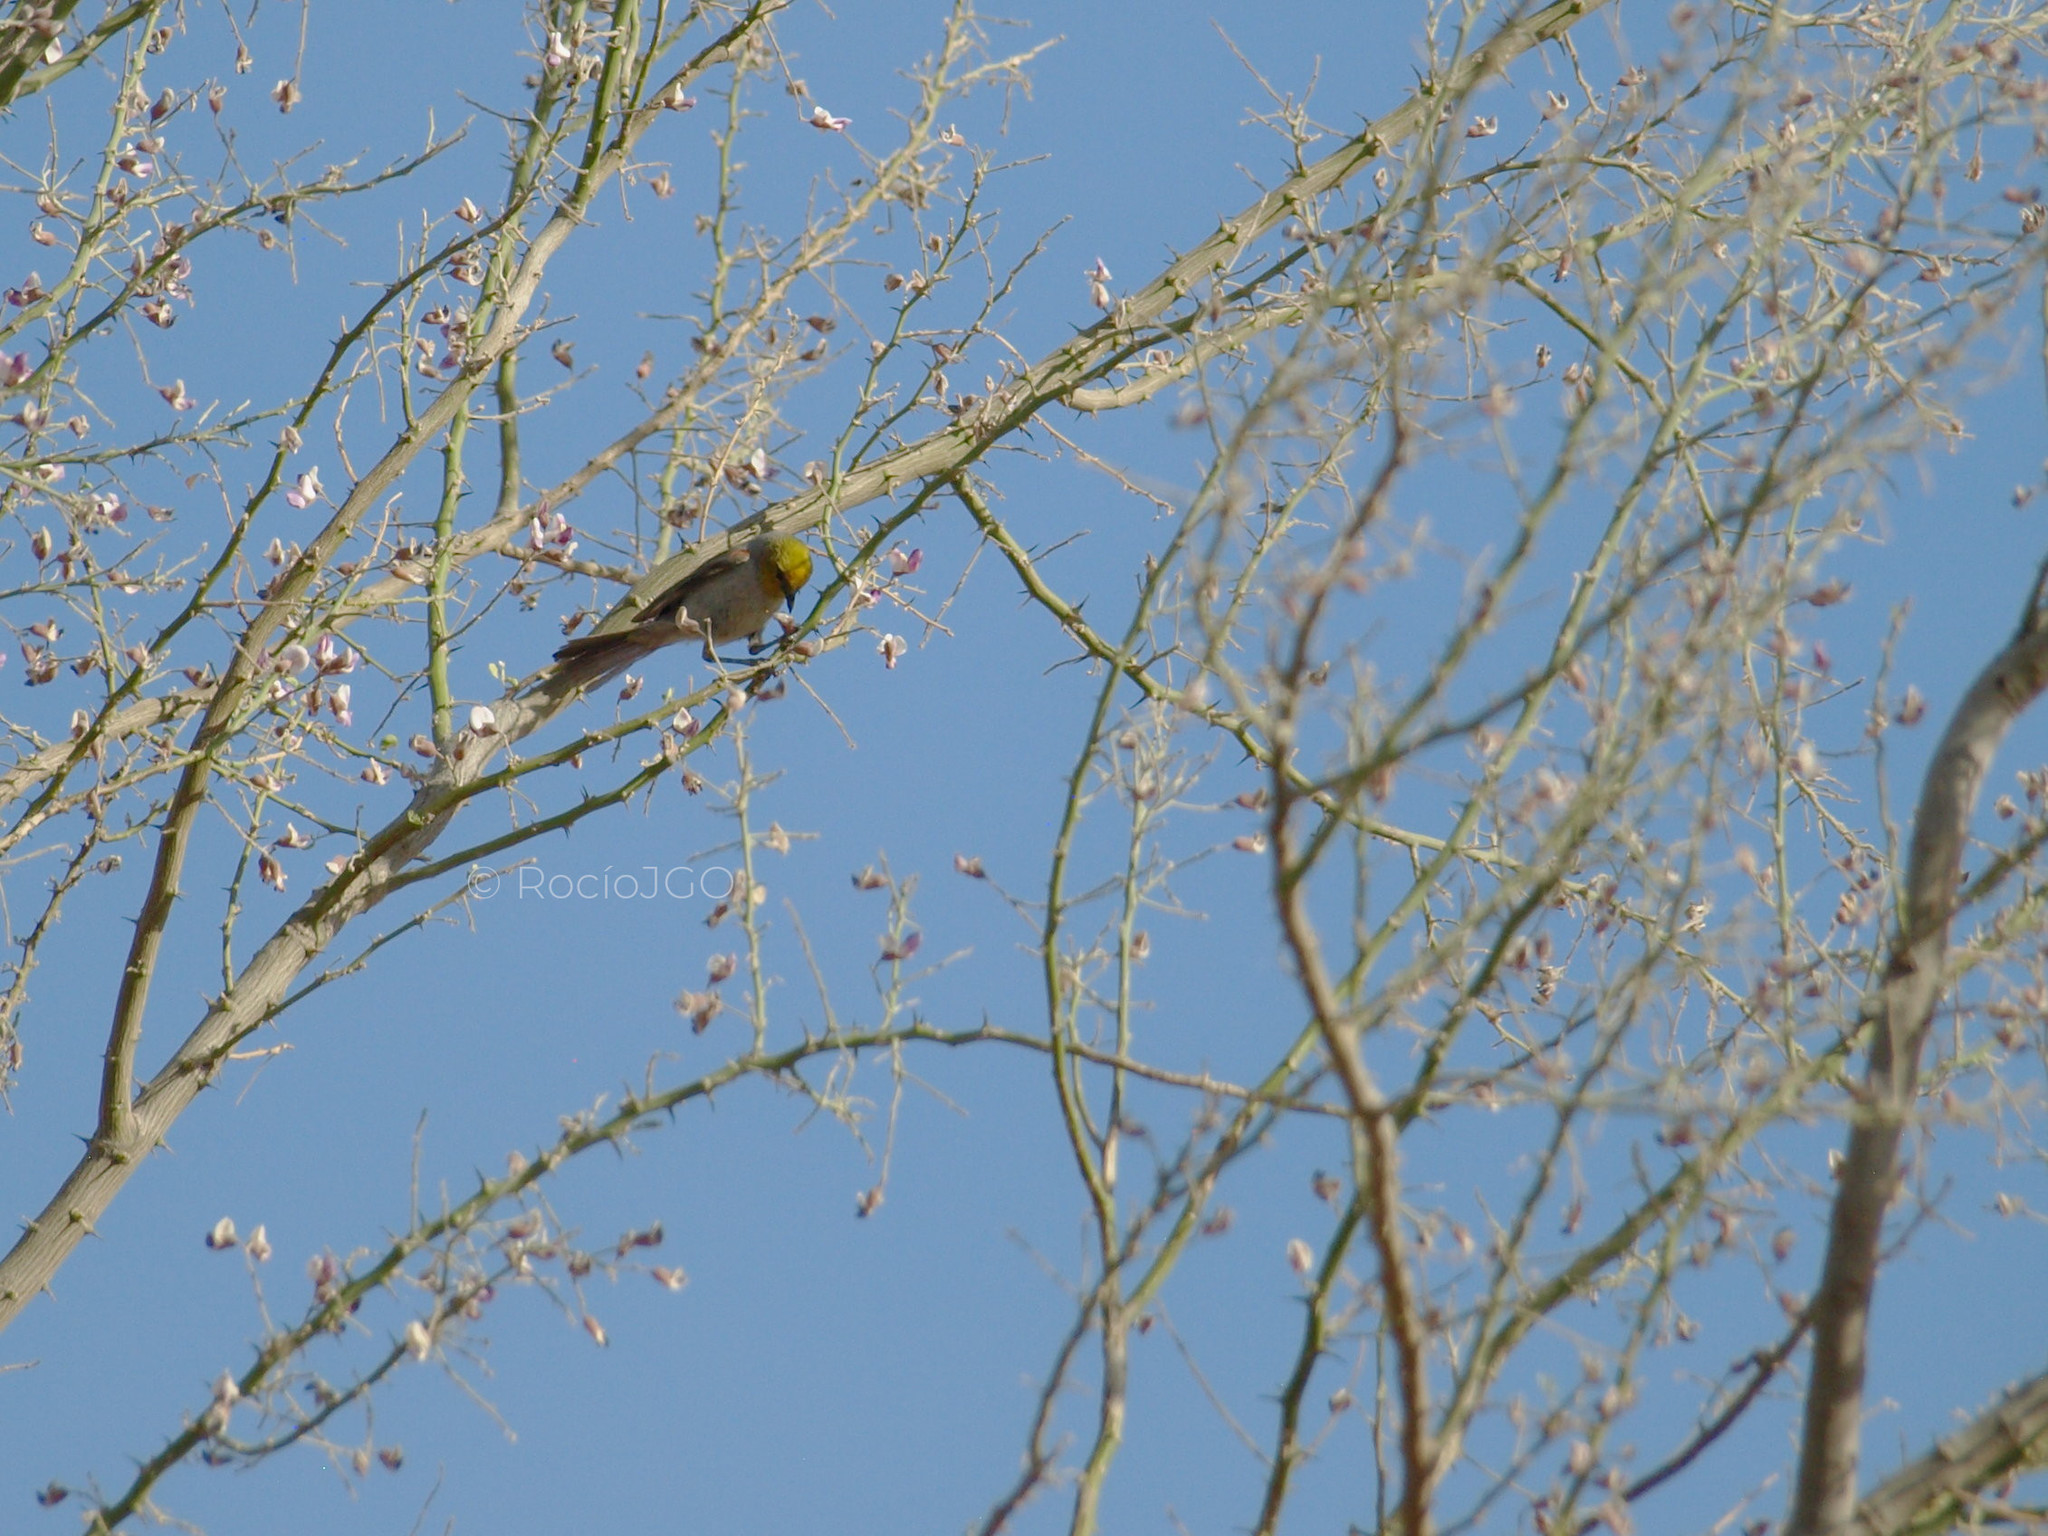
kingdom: Animalia
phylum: Chordata
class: Aves
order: Passeriformes
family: Remizidae
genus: Auriparus
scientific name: Auriparus flaviceps
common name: Verdin
